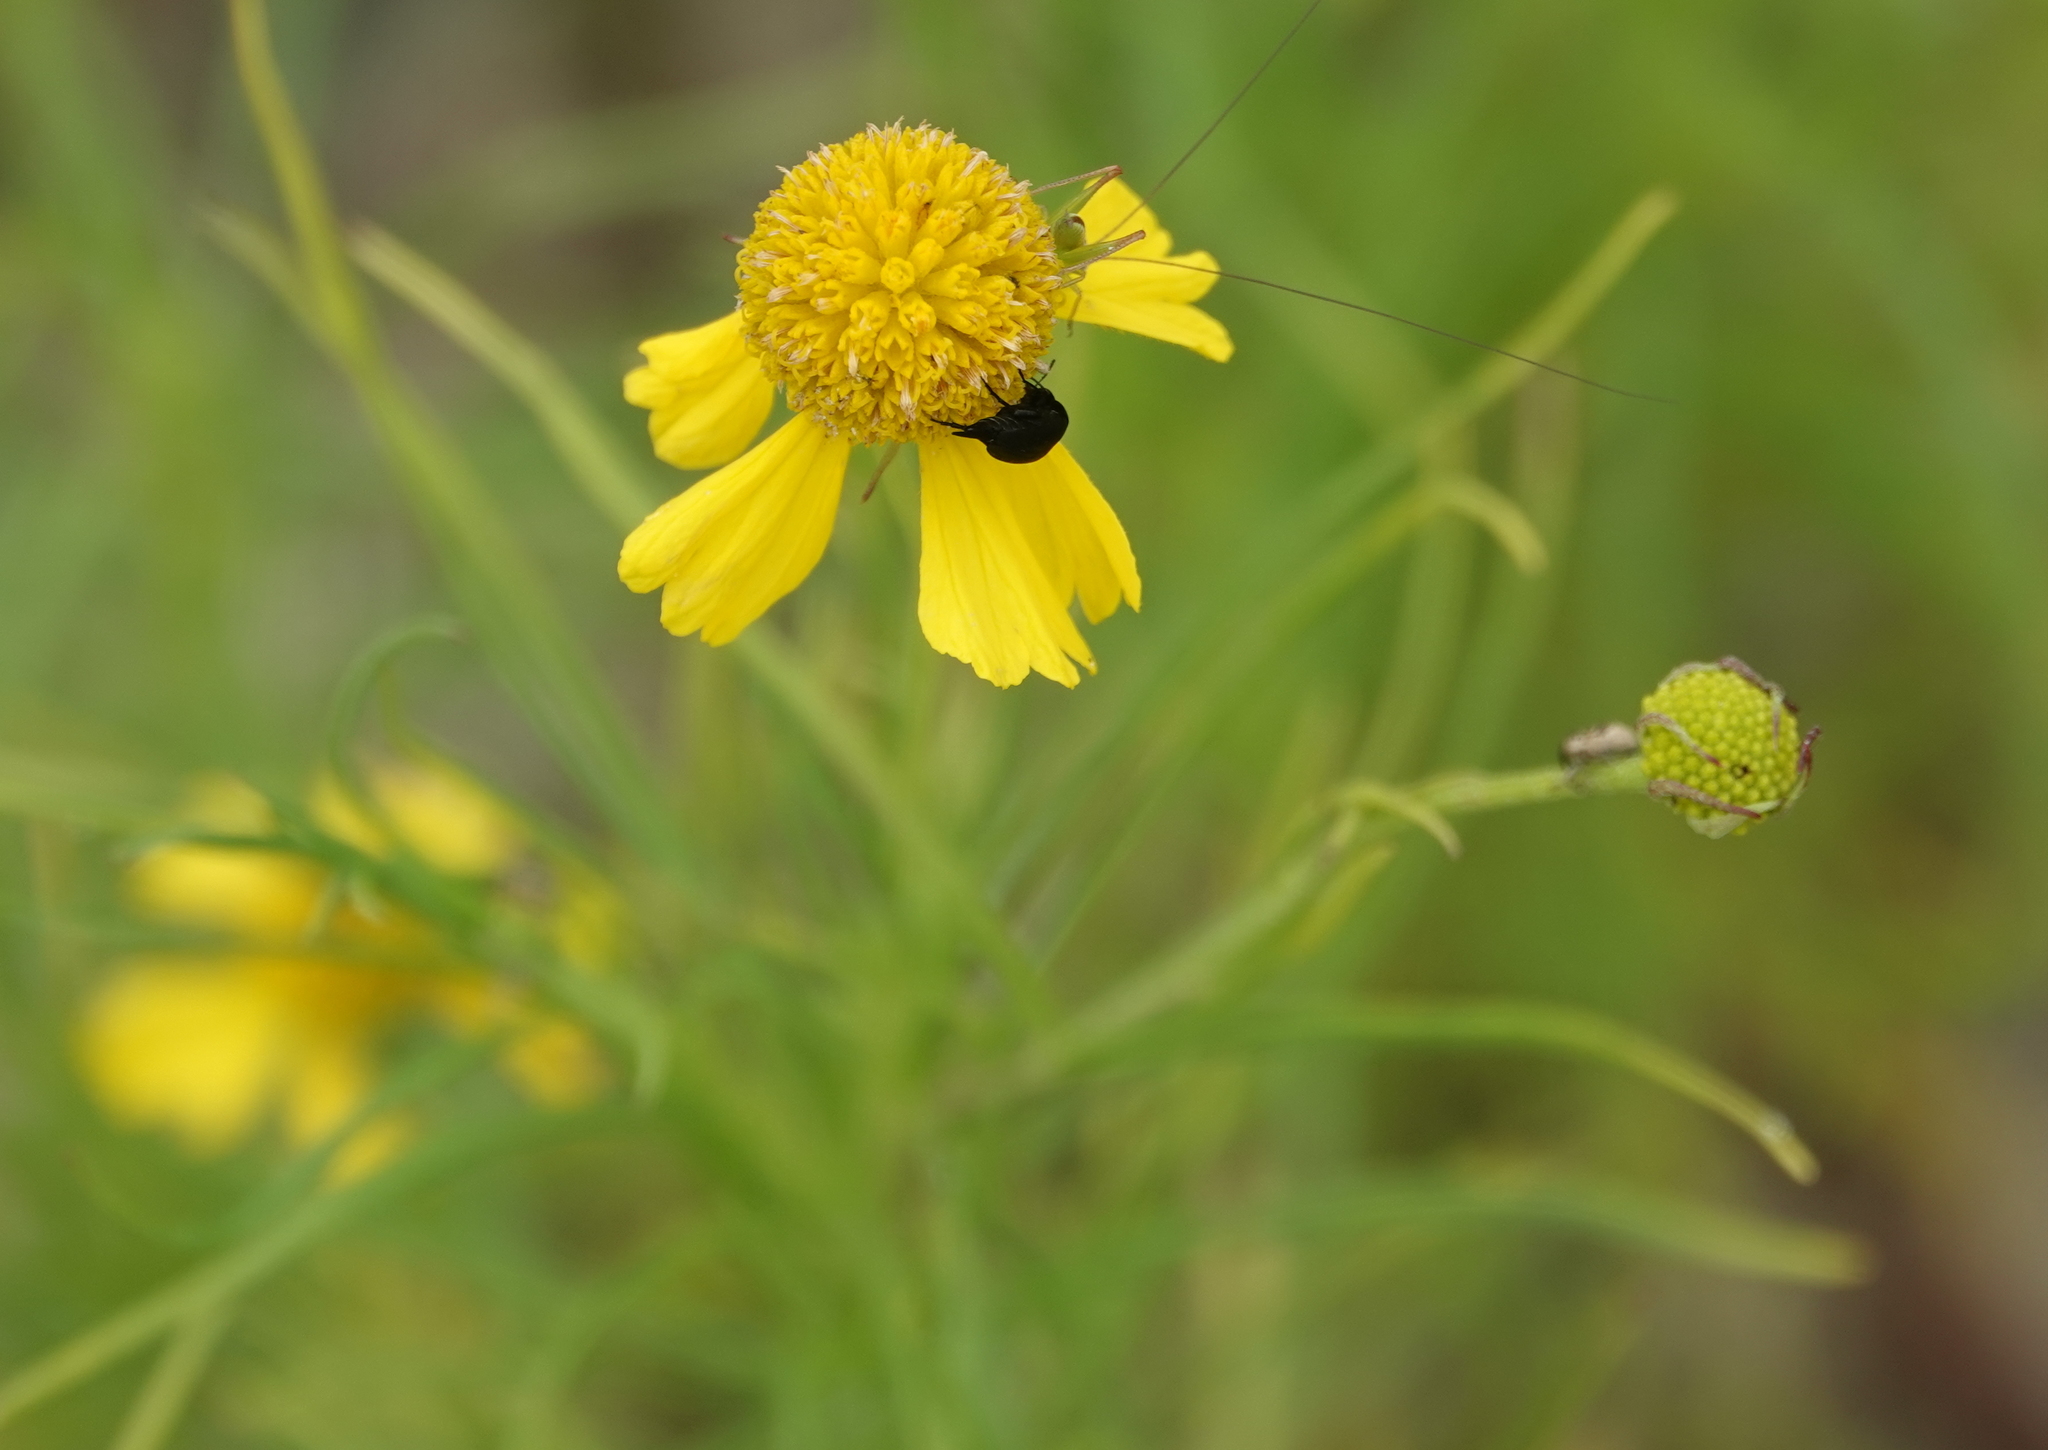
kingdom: Plantae
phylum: Tracheophyta
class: Magnoliopsida
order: Asterales
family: Asteraceae
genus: Helenium
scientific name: Helenium amarum
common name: Bitter sneezeweed
